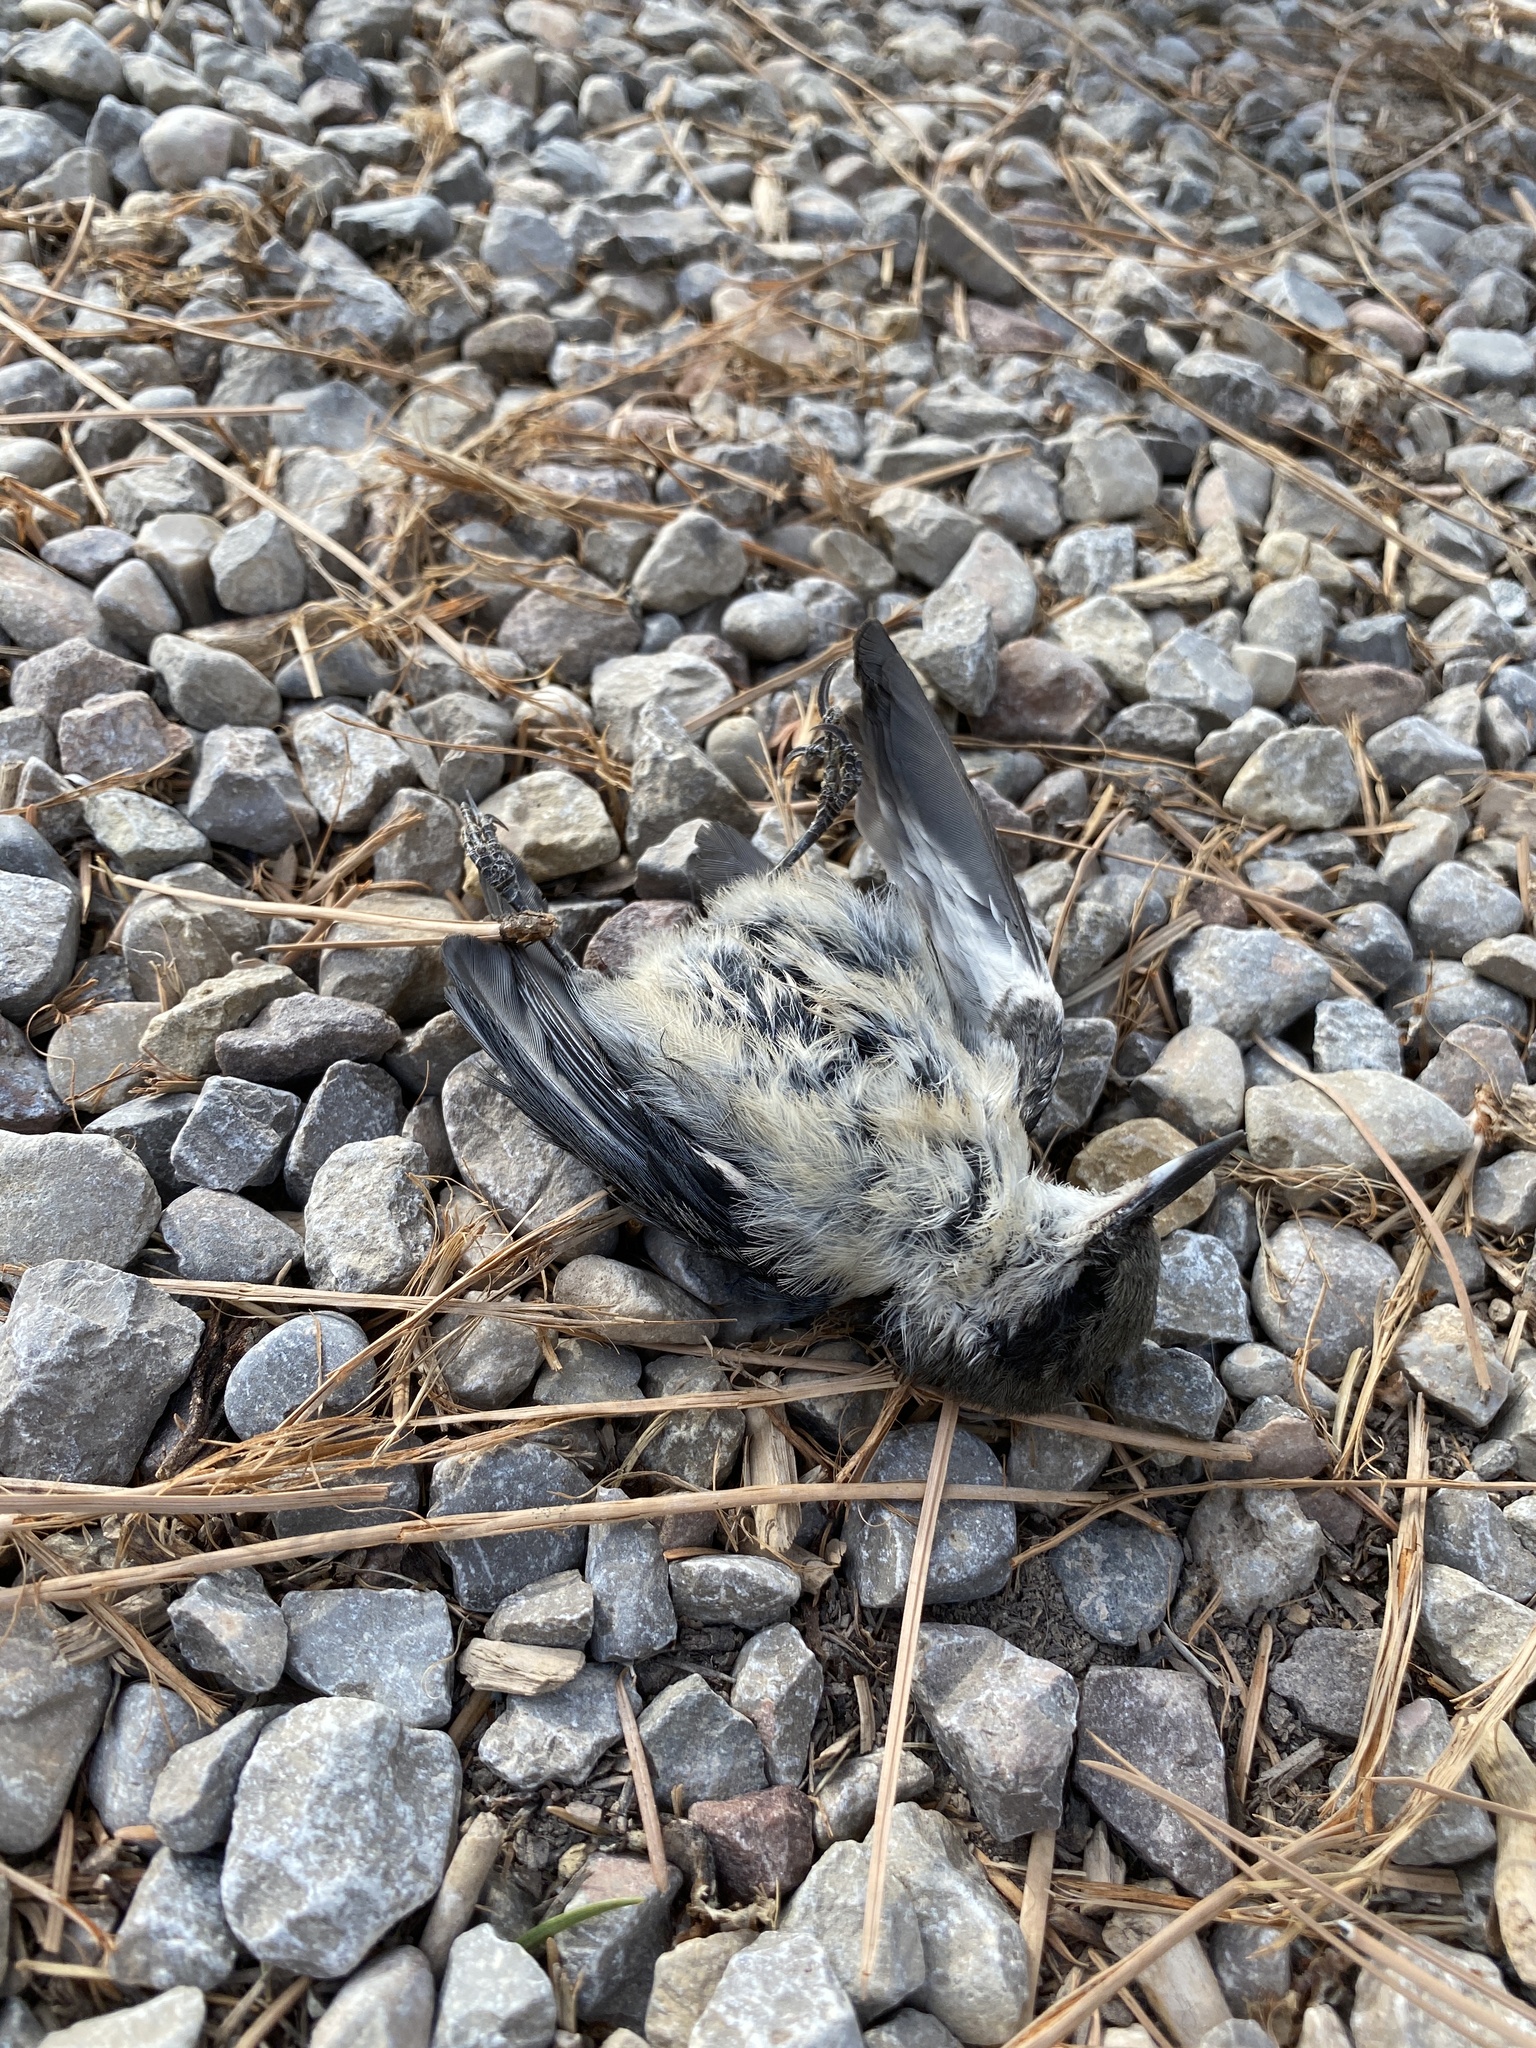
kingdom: Animalia
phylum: Chordata
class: Aves
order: Passeriformes
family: Sittidae
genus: Sitta
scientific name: Sitta pygmaea
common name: Pygmy nuthatch
